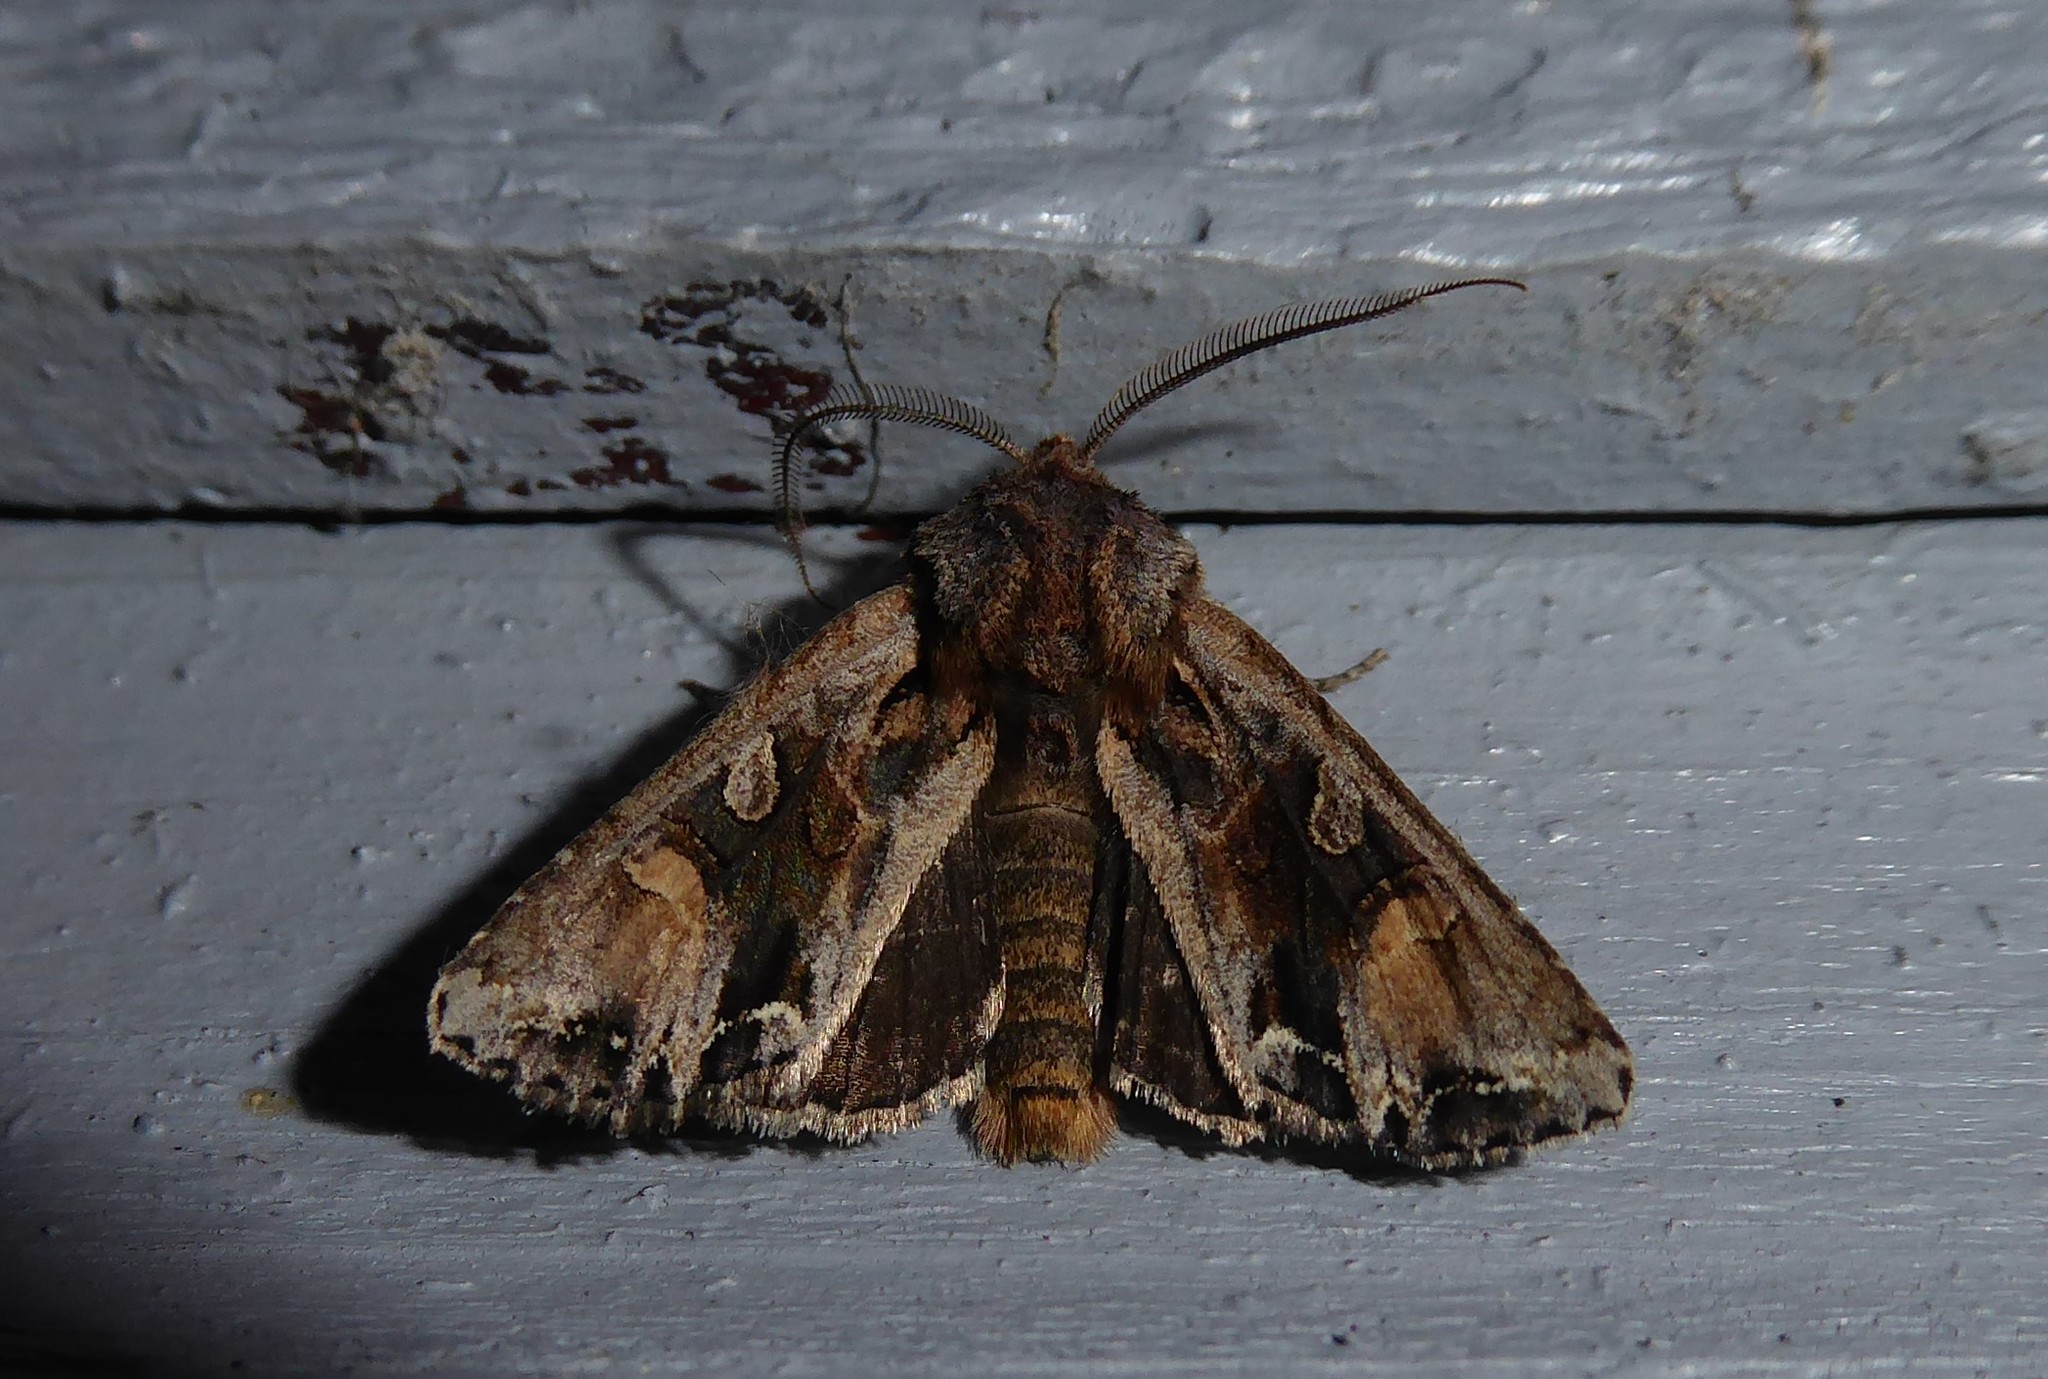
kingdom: Animalia
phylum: Arthropoda
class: Insecta
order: Lepidoptera
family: Noctuidae
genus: Ichneutica
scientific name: Ichneutica
